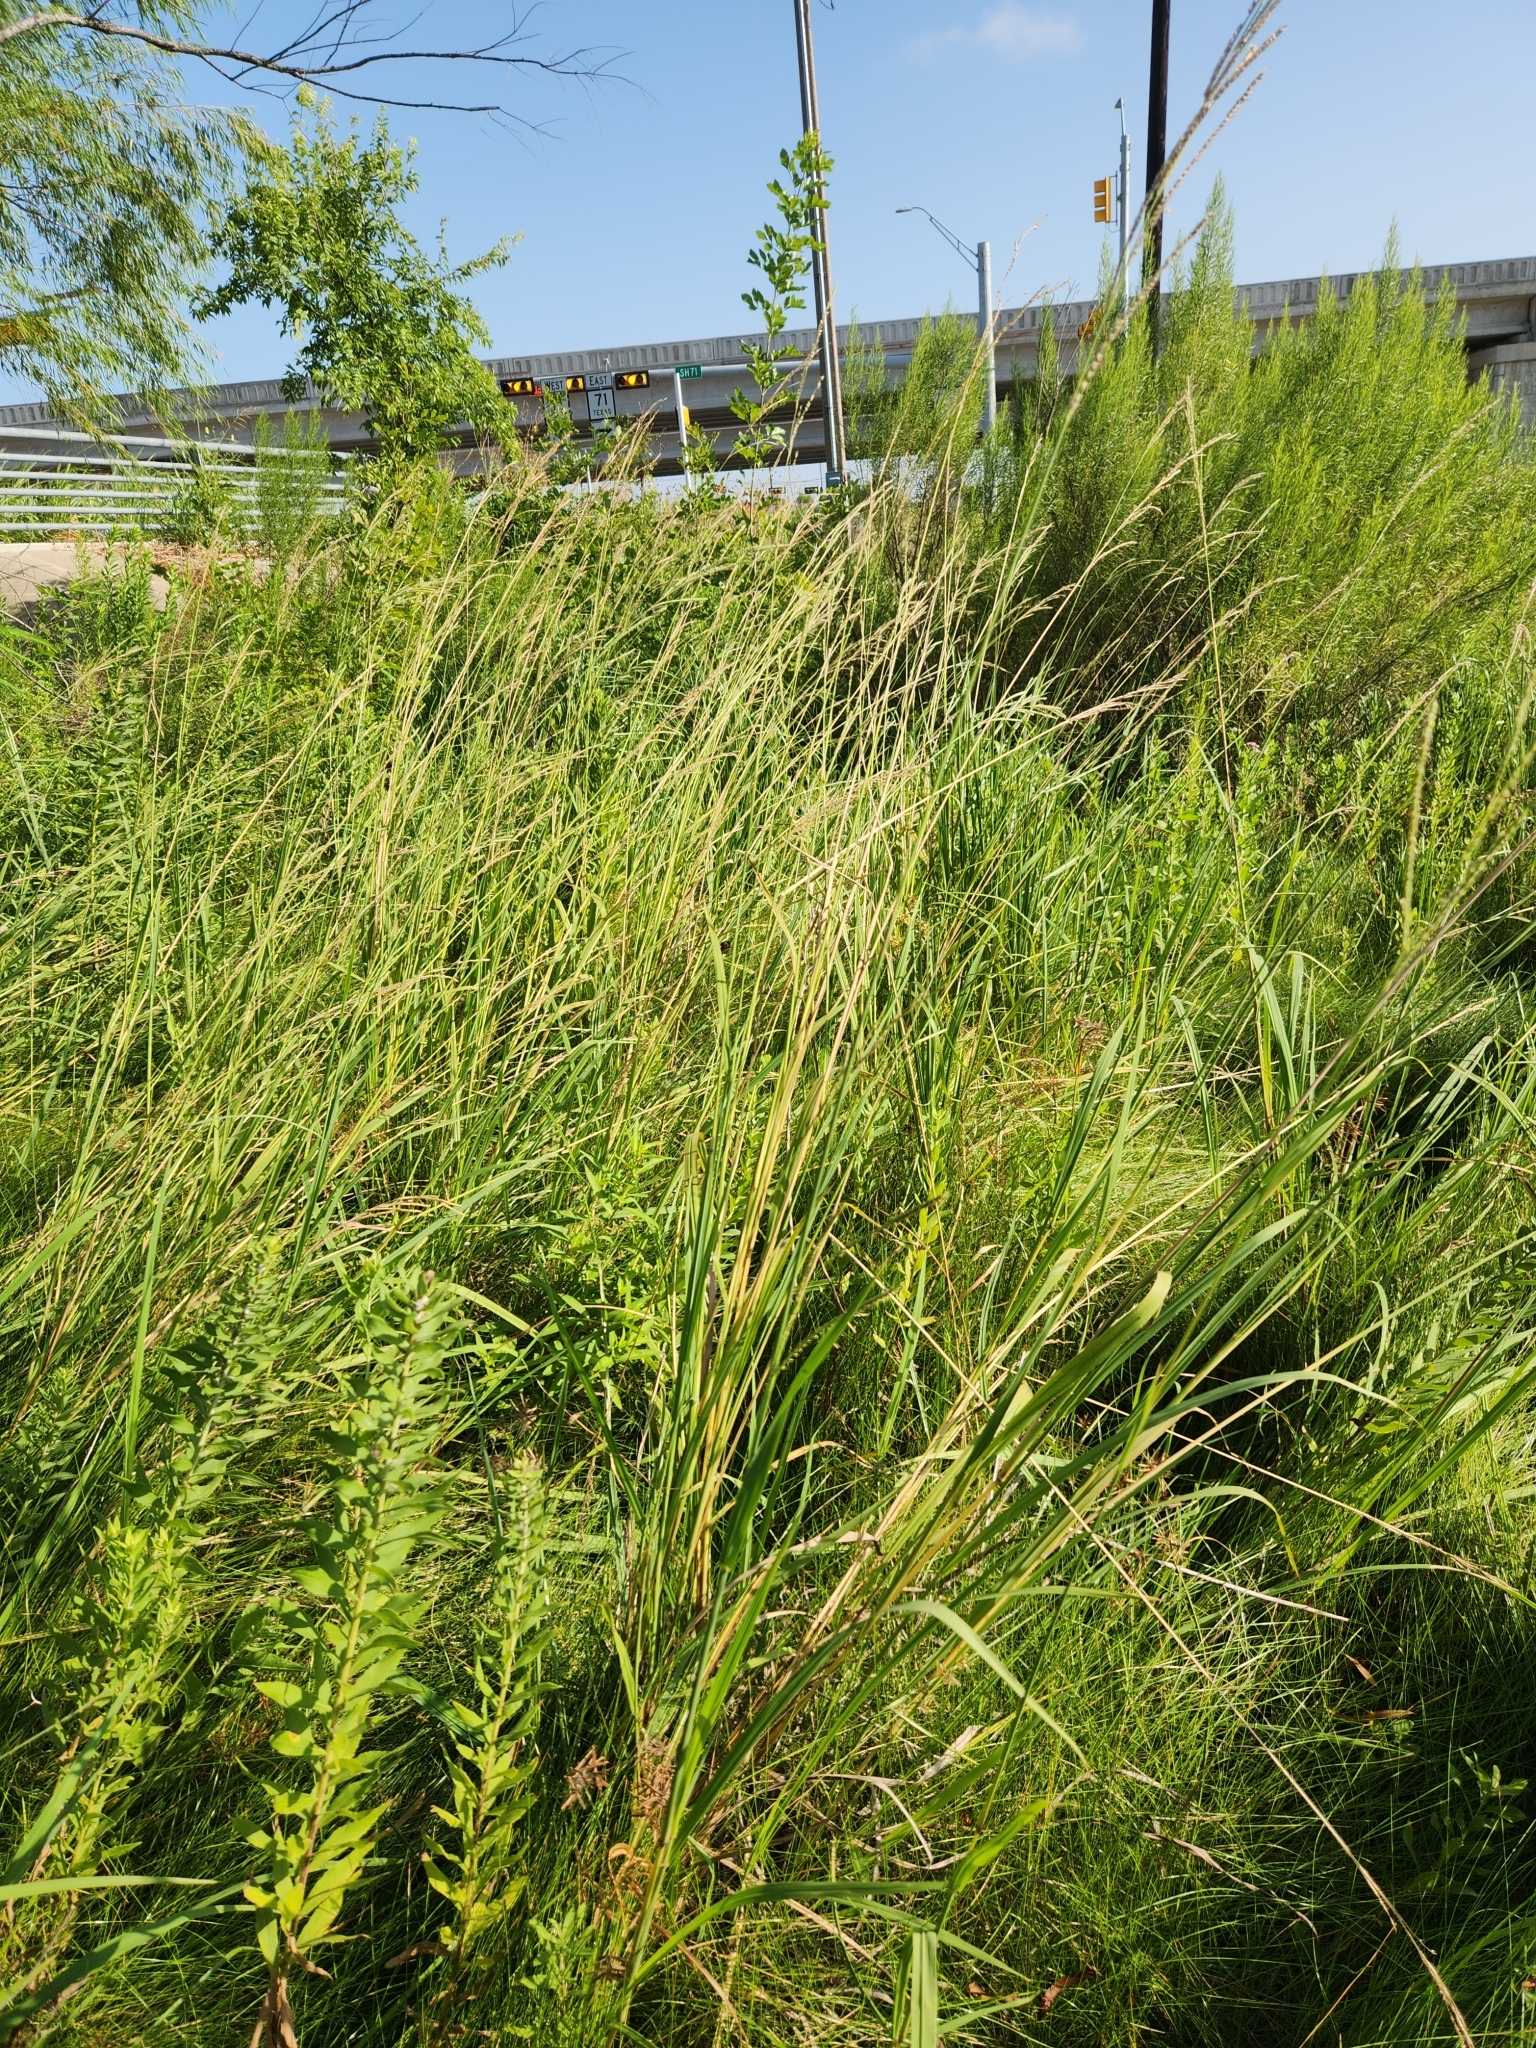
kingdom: Plantae
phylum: Tracheophyta
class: Liliopsida
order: Poales
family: Poaceae
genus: Paspalum
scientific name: Paspalum urvillei
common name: Vasey's grass
